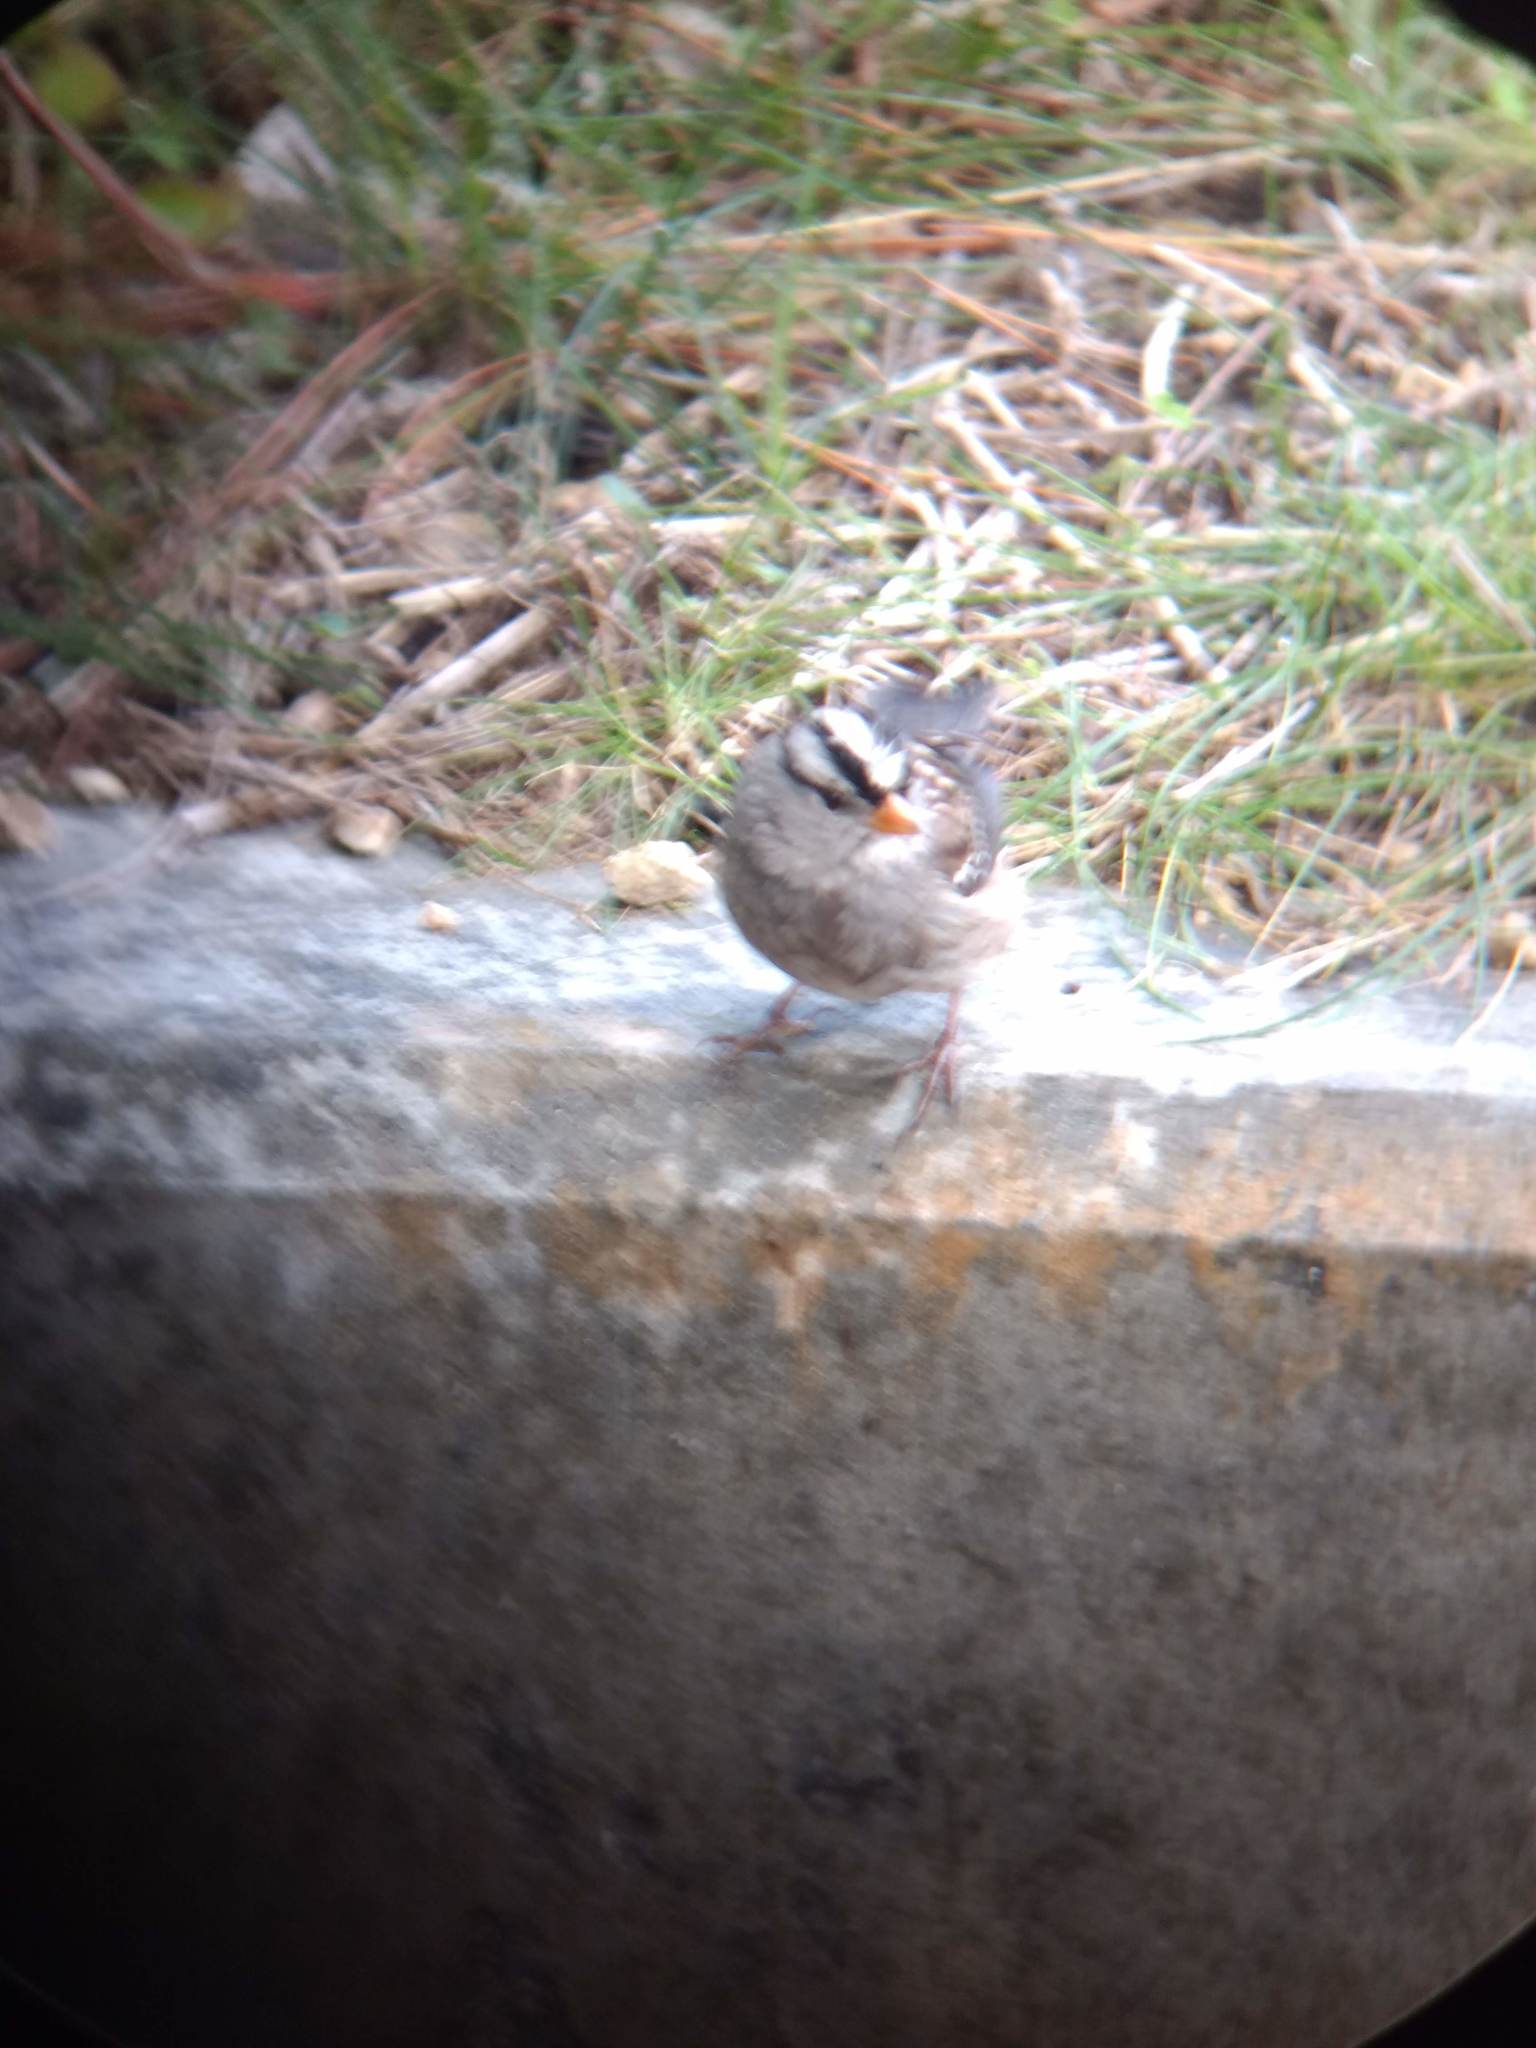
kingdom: Animalia
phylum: Chordata
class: Aves
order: Passeriformes
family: Passerellidae
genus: Zonotrichia
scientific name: Zonotrichia leucophrys
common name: White-crowned sparrow
